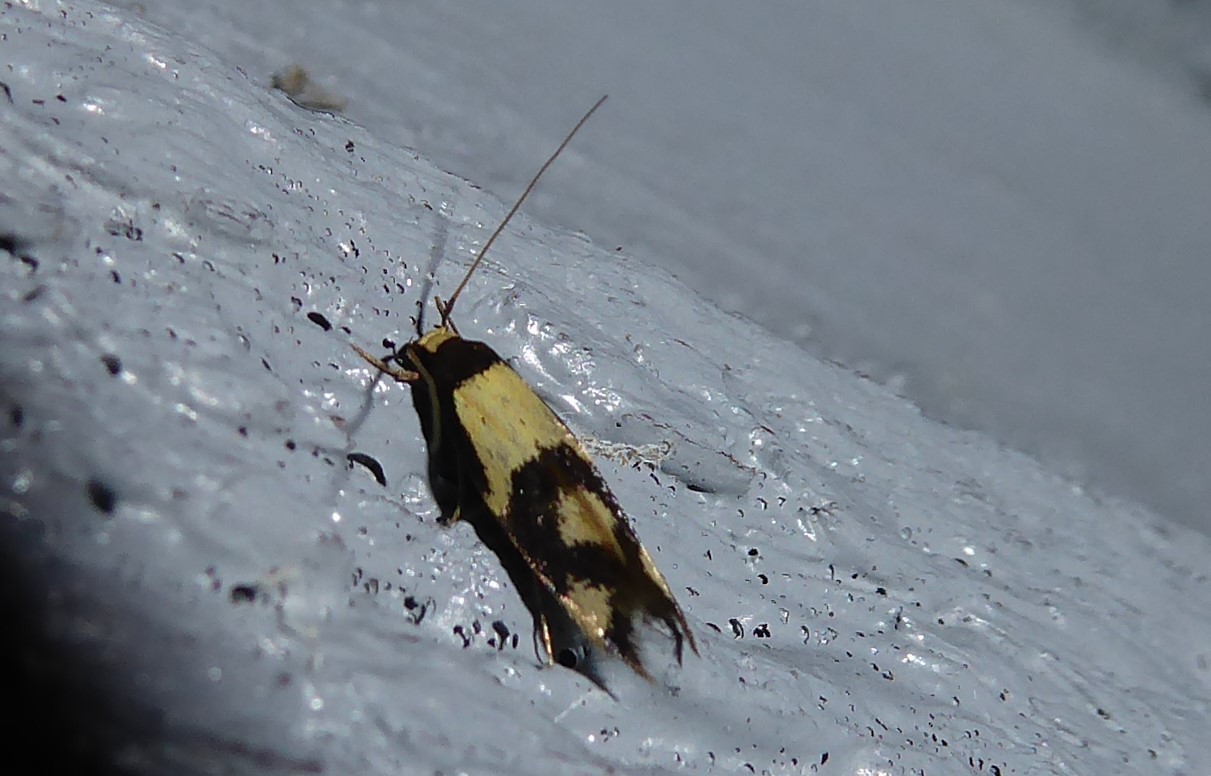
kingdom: Animalia
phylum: Arthropoda
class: Insecta
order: Lepidoptera
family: Tineidae
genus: Opogona
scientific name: Opogona comptella
